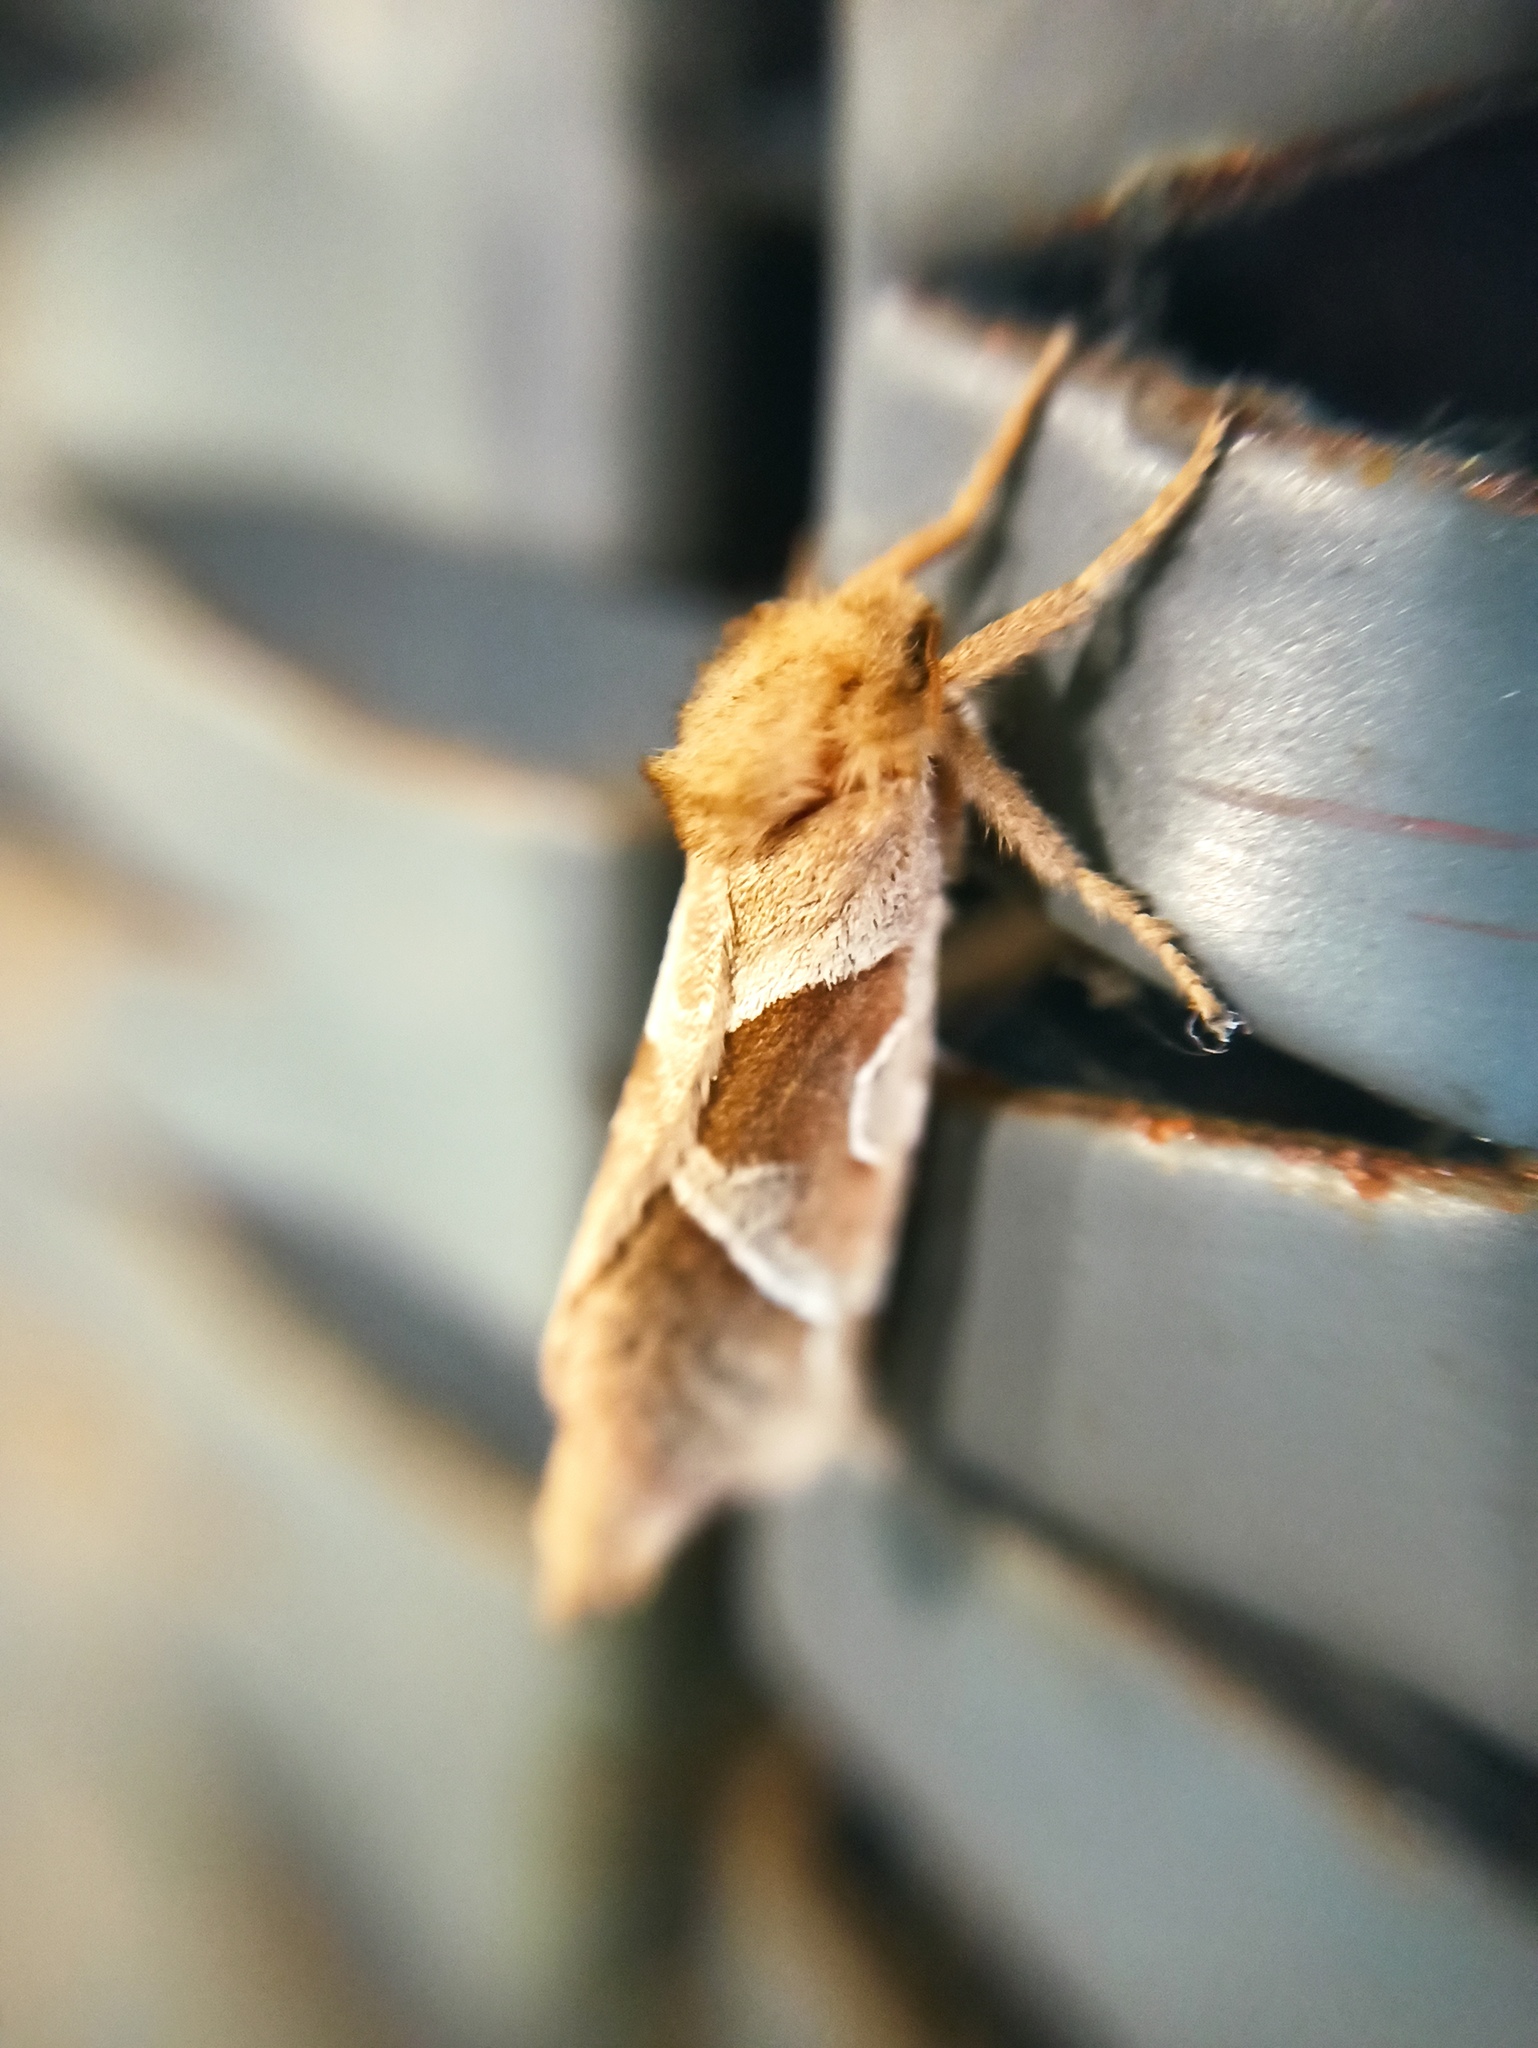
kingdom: Animalia
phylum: Arthropoda
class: Insecta
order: Lepidoptera
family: Hepialidae
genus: Triodia
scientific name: Triodia sylvina
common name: Orange swift
